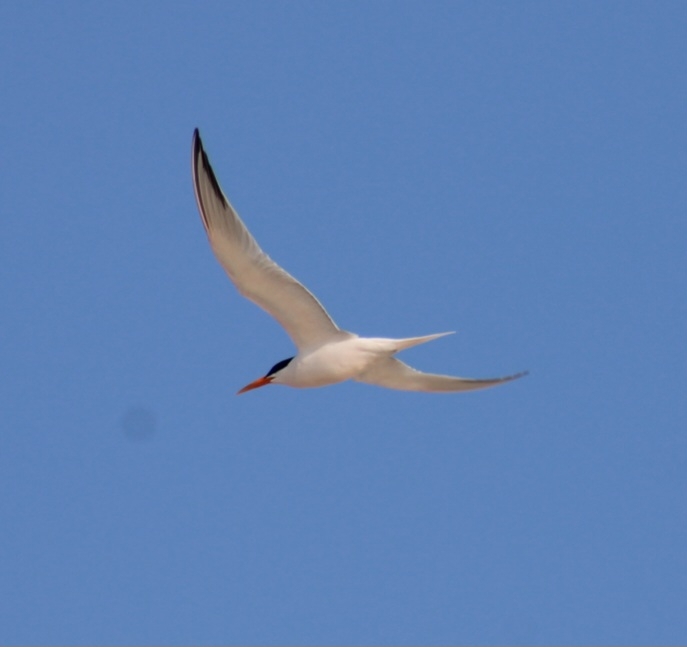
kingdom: Animalia
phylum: Chordata
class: Aves
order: Charadriiformes
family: Laridae
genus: Thalasseus
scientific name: Thalasseus elegans
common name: Elegant tern
